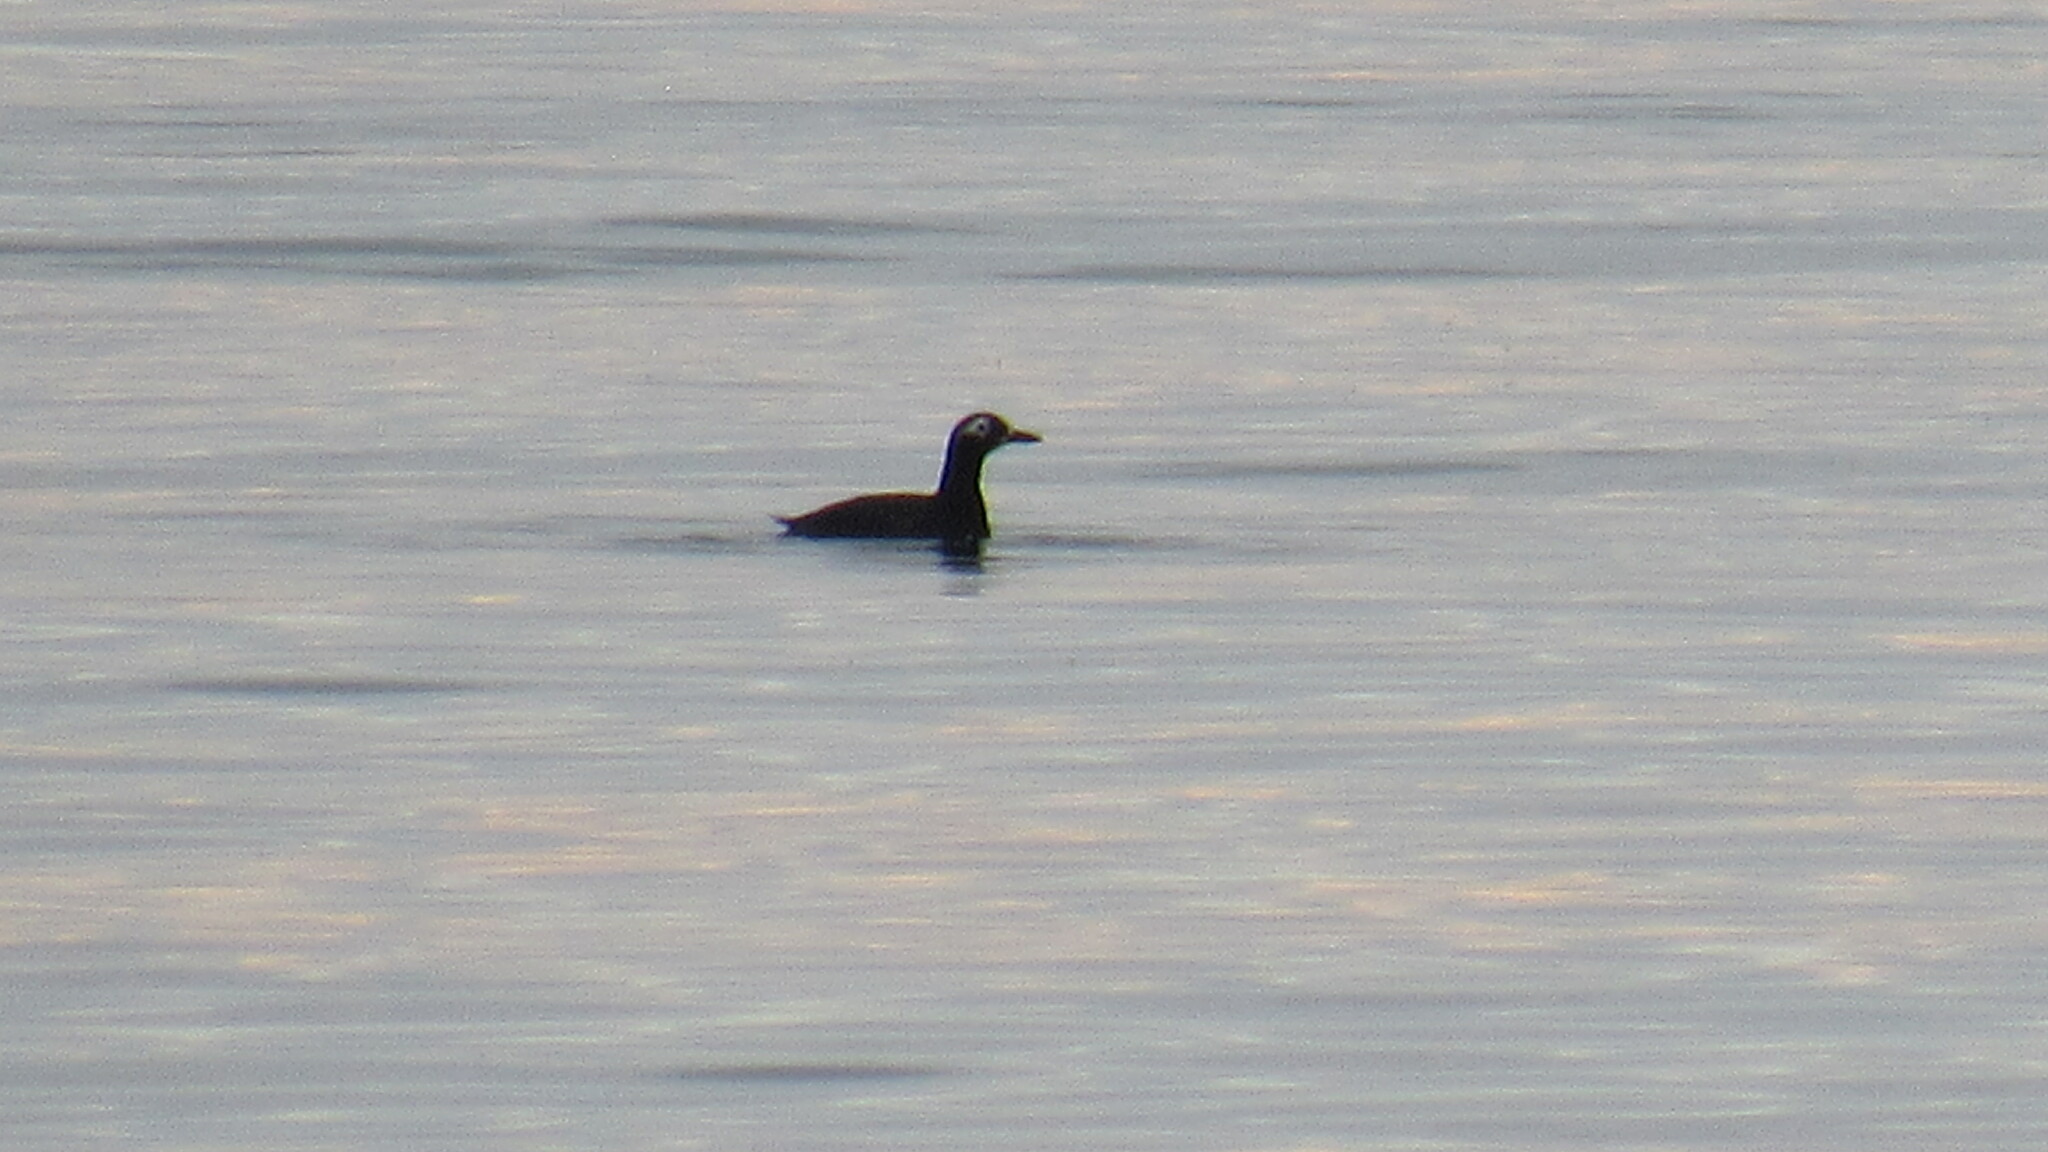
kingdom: Animalia
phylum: Chordata
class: Aves
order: Charadriiformes
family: Alcidae
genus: Cepphus
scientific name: Cepphus carbo
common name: Spectacled guillemot
